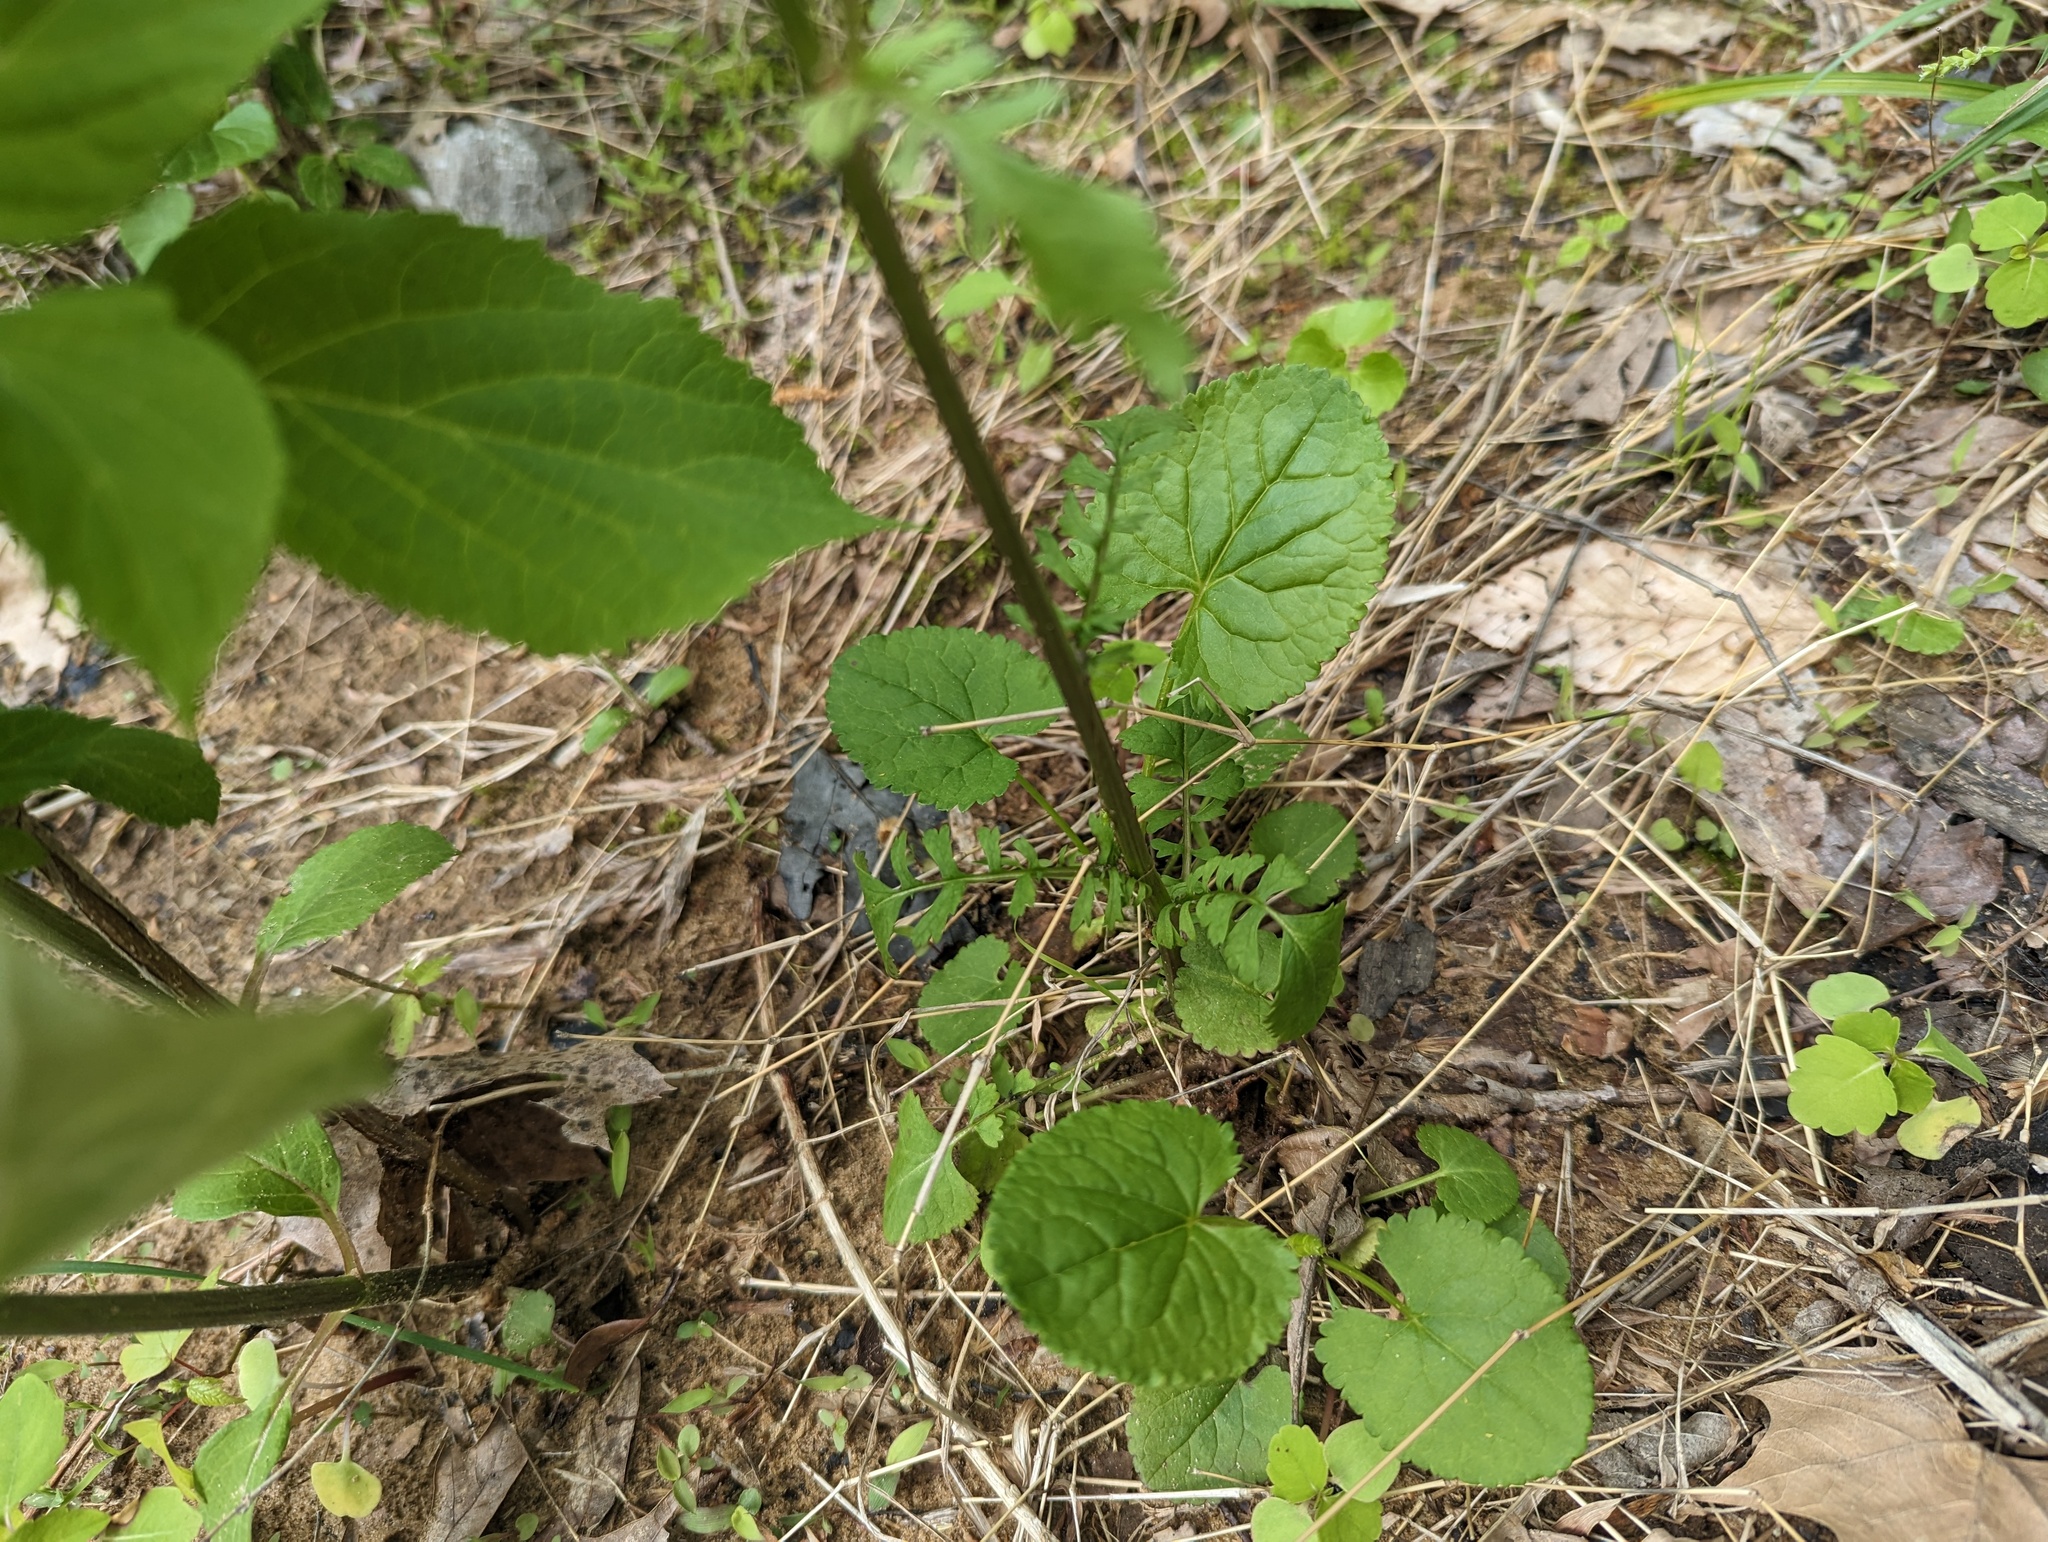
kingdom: Plantae
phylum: Tracheophyta
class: Magnoliopsida
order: Asterales
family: Asteraceae
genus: Packera
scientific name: Packera aurea
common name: Golden groundsel
